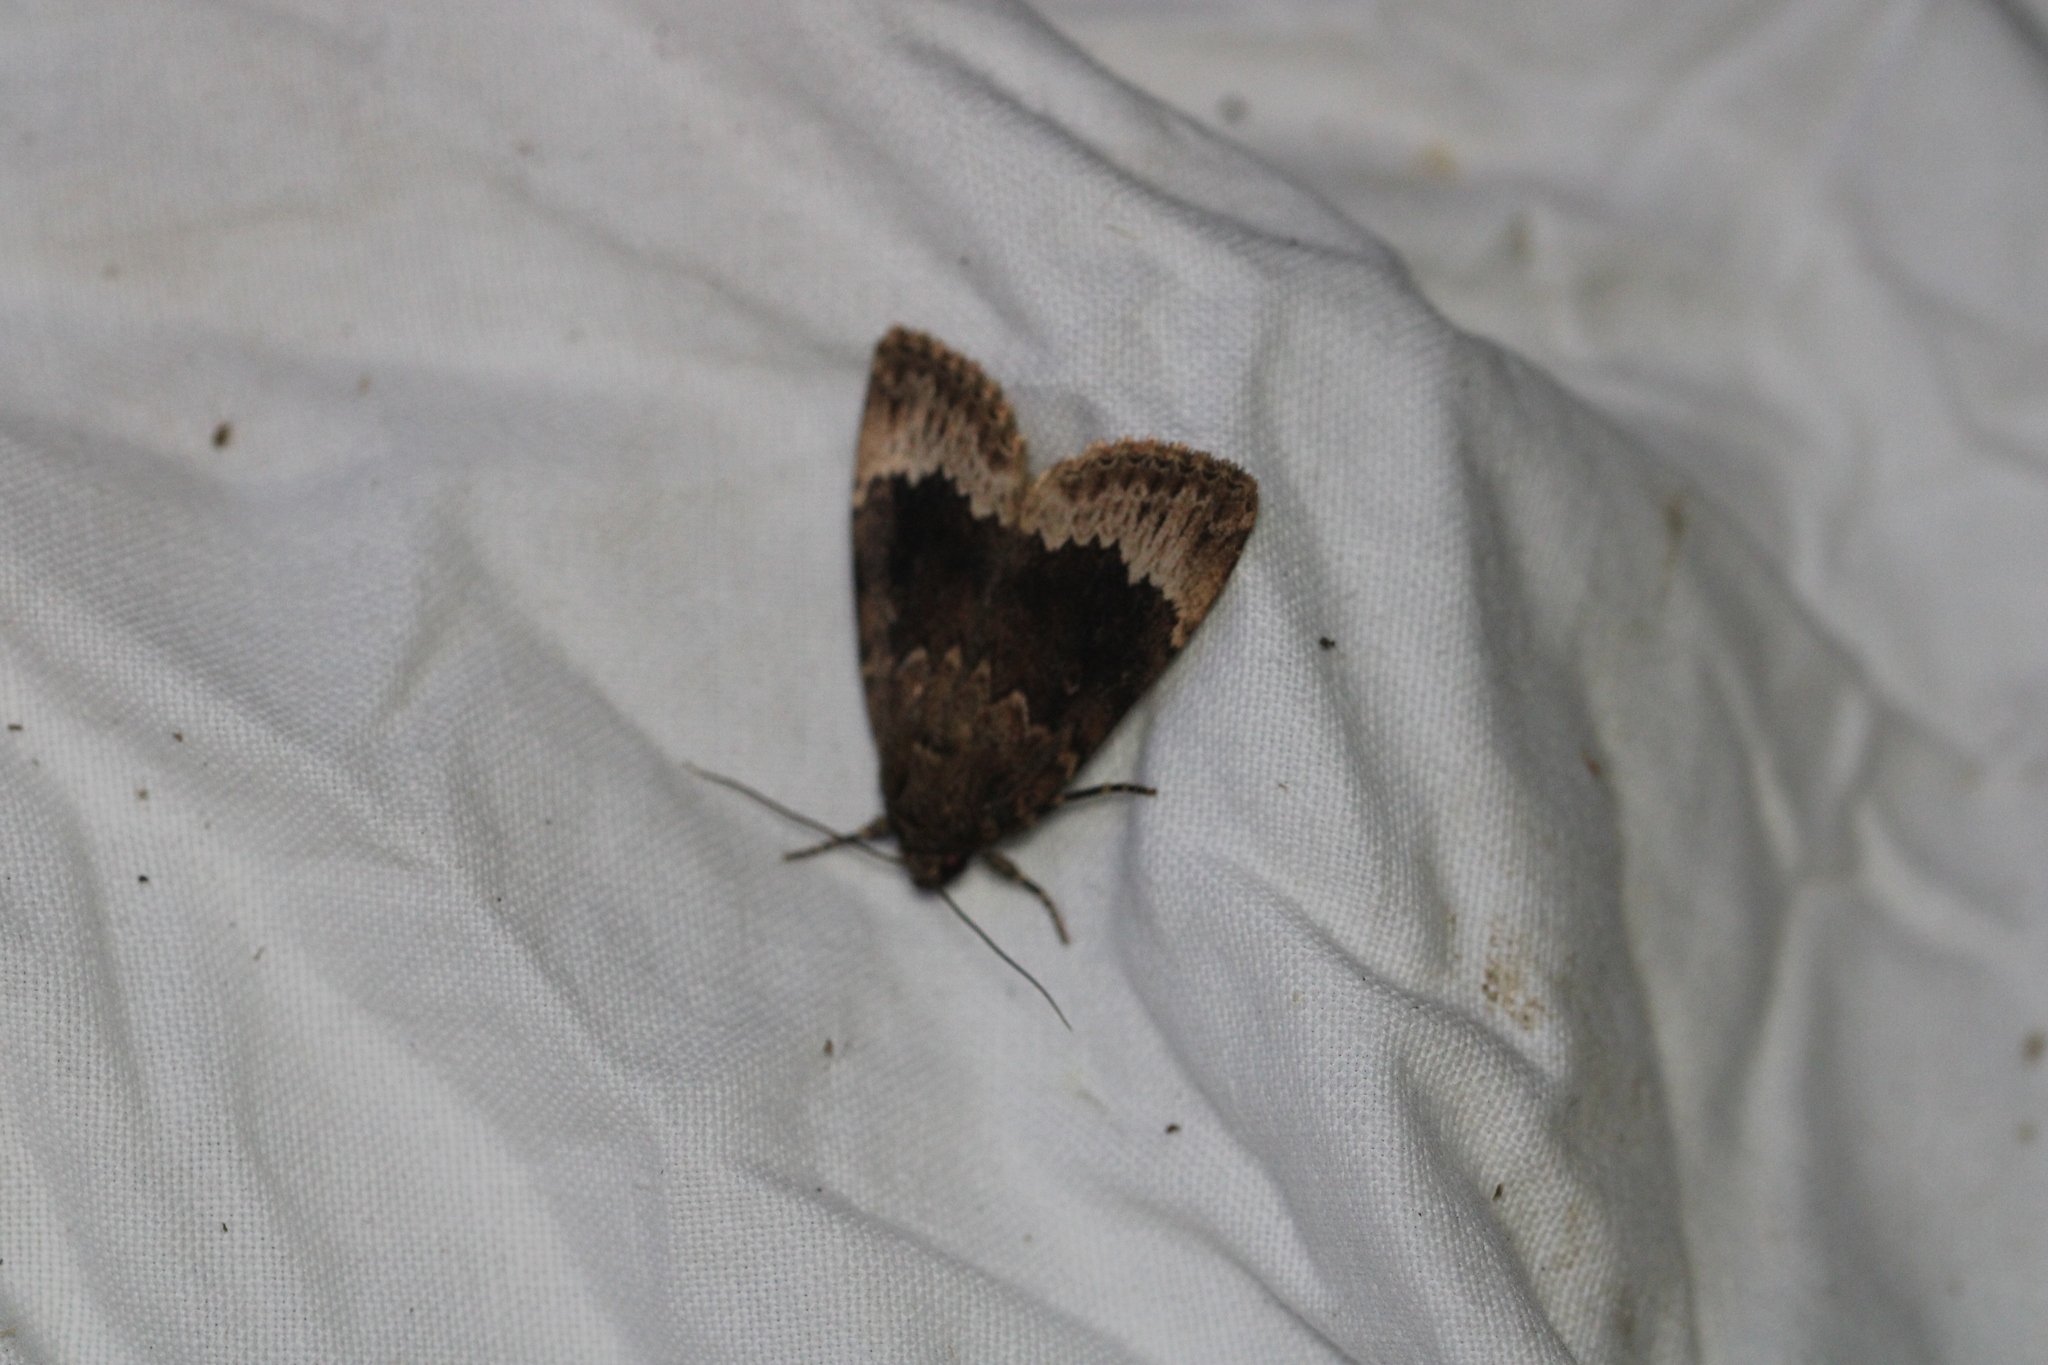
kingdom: Animalia
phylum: Arthropoda
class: Insecta
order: Lepidoptera
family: Noctuidae
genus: Amphipyra
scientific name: Amphipyra perflua
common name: Larger pale-tipped black moth
